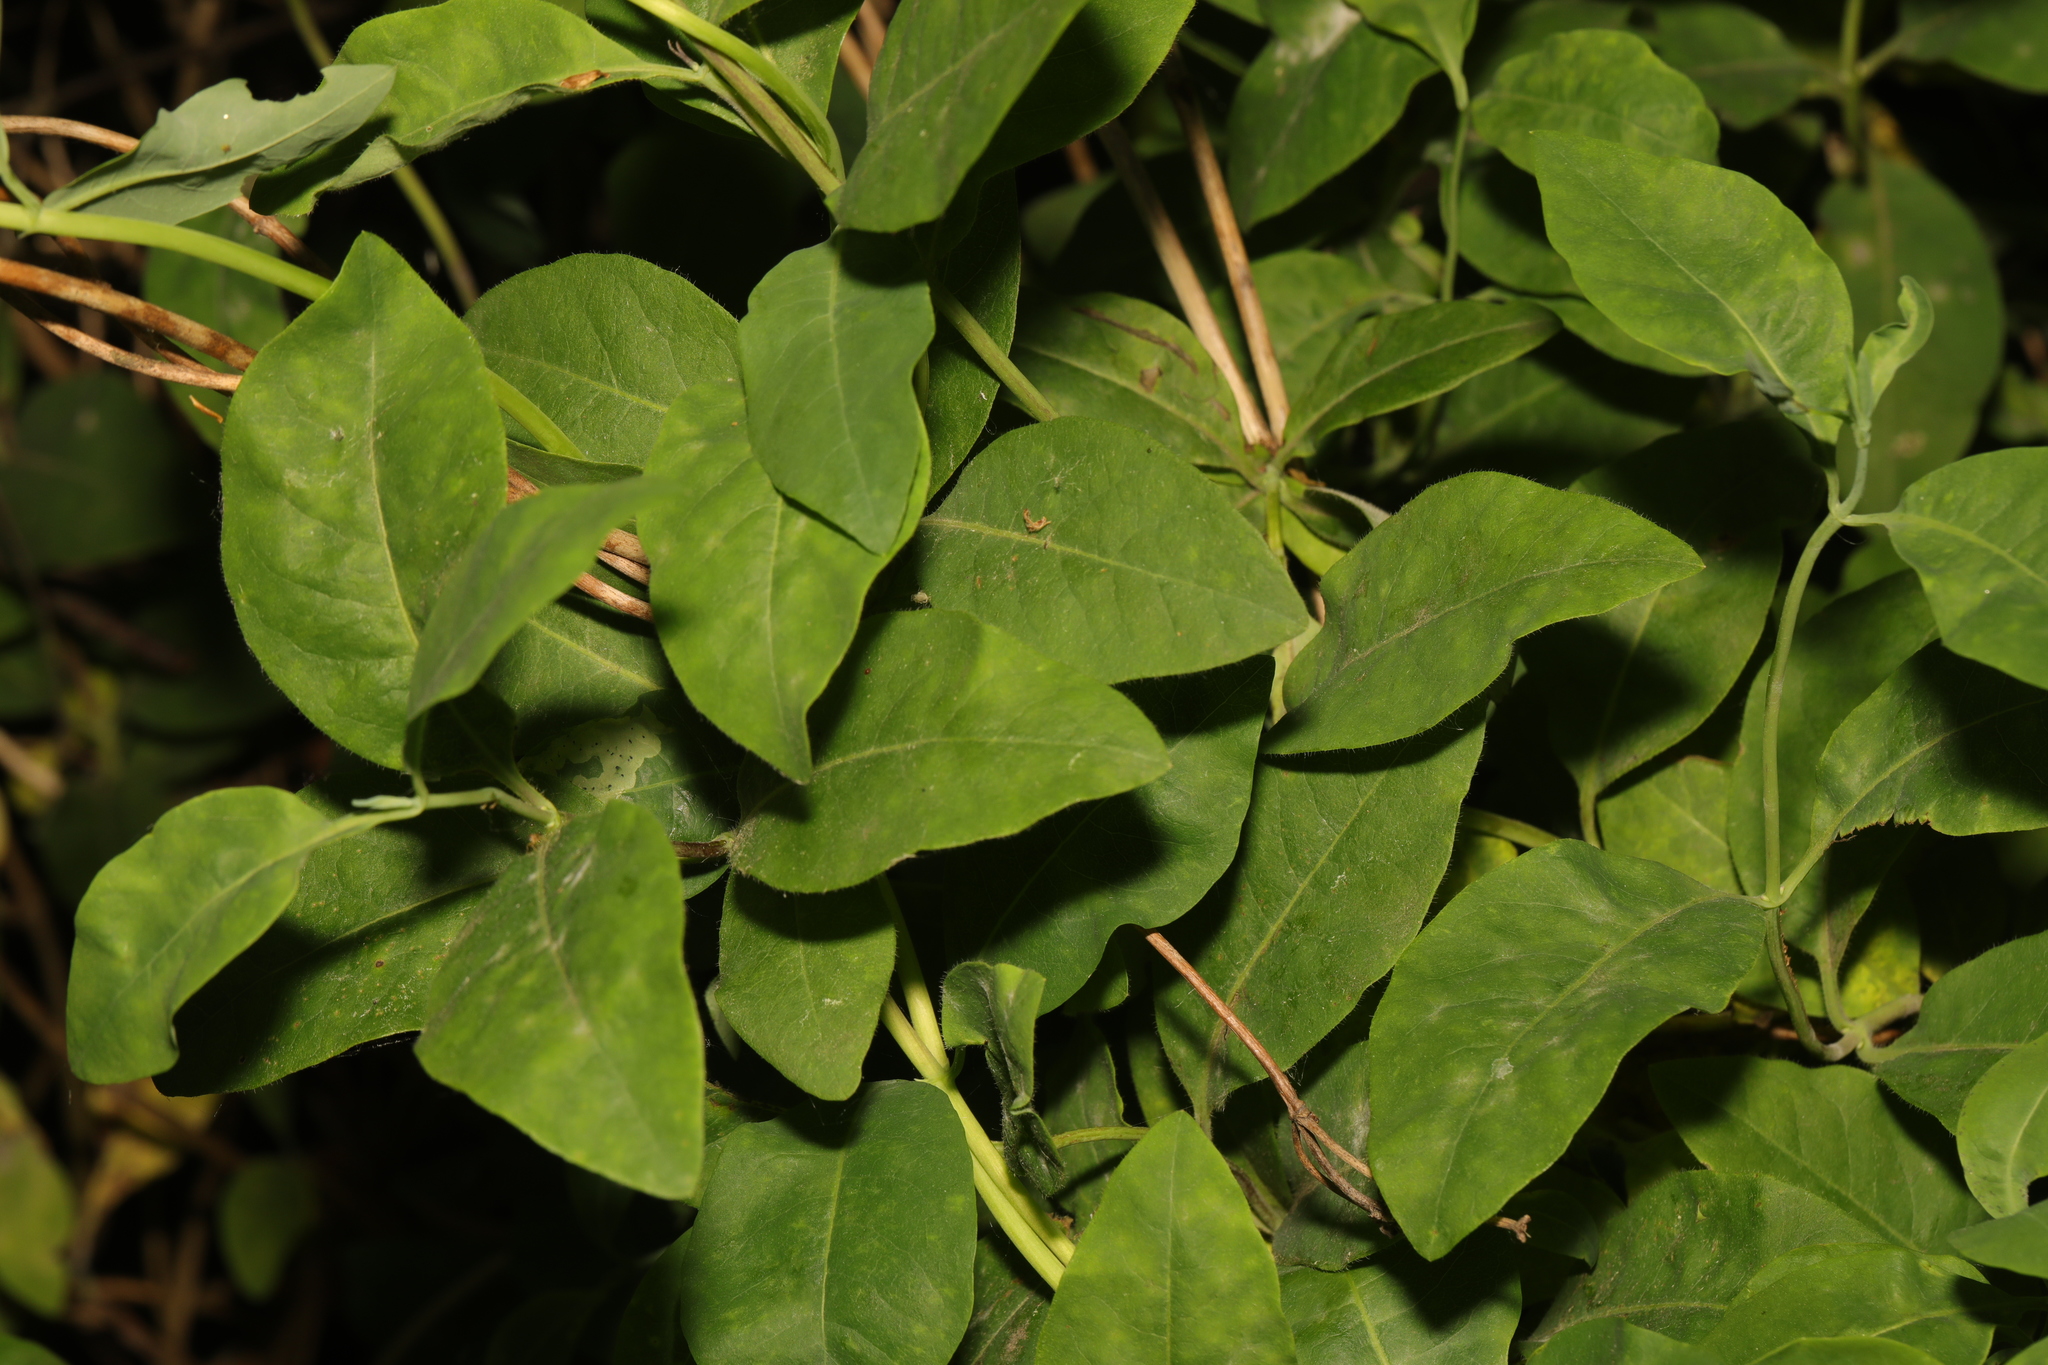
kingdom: Plantae
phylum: Tracheophyta
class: Magnoliopsida
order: Dipsacales
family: Caprifoliaceae
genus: Lonicera
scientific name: Lonicera periclymenum
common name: European honeysuckle
